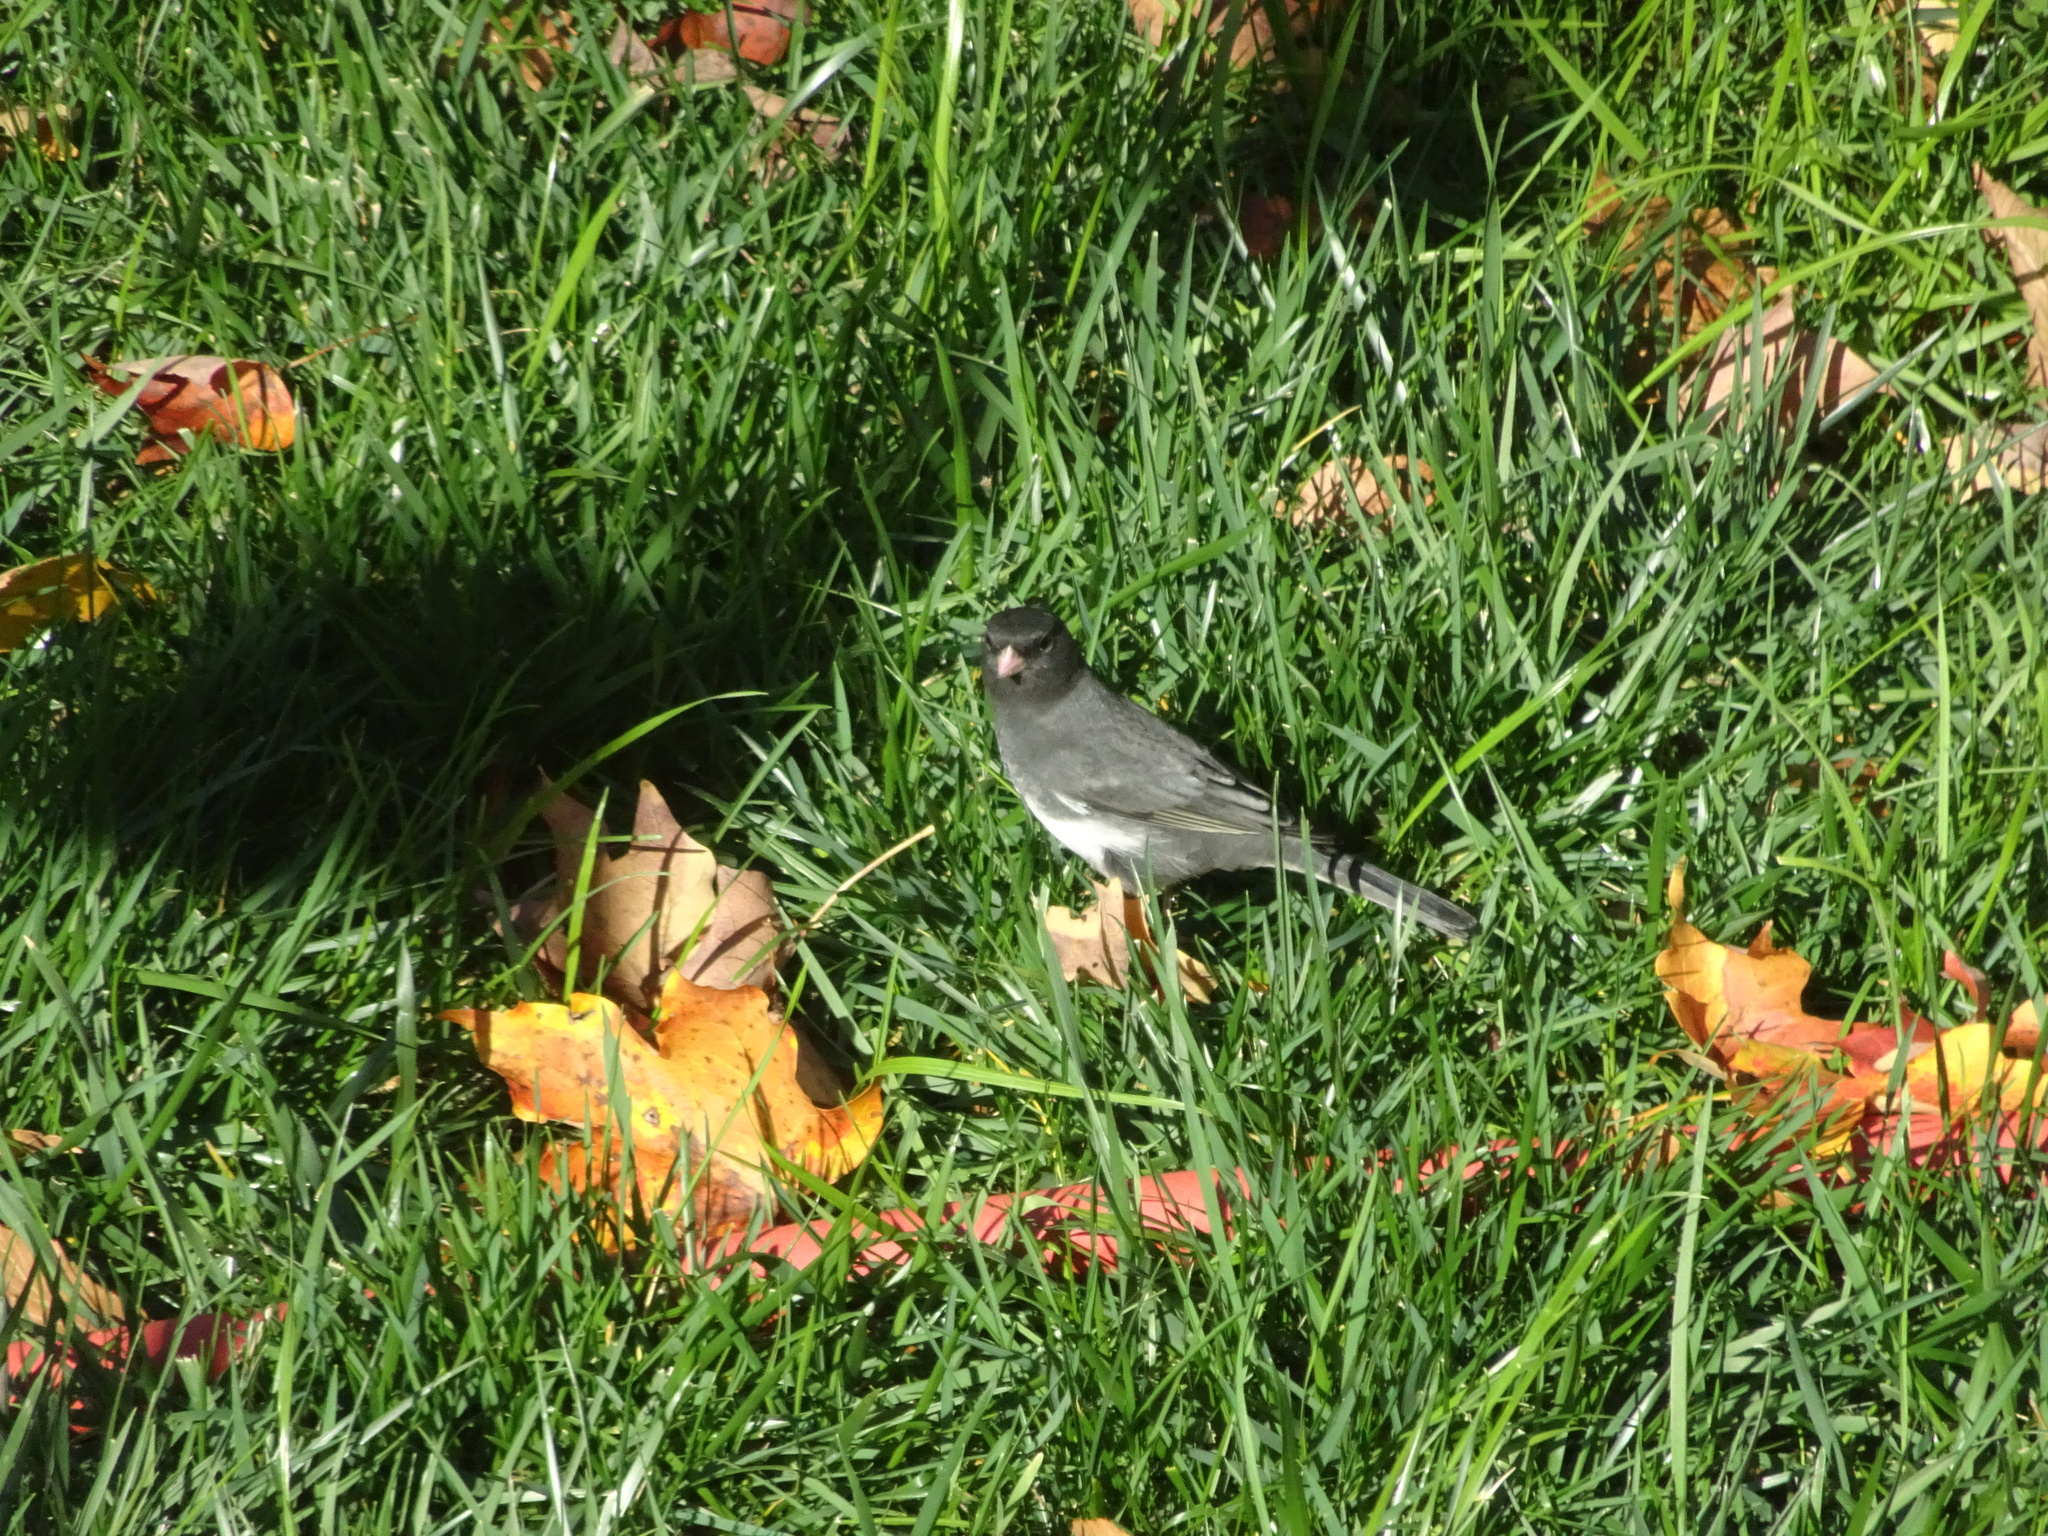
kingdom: Animalia
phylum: Chordata
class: Aves
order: Passeriformes
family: Passerellidae
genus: Junco
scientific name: Junco hyemalis
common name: Dark-eyed junco
